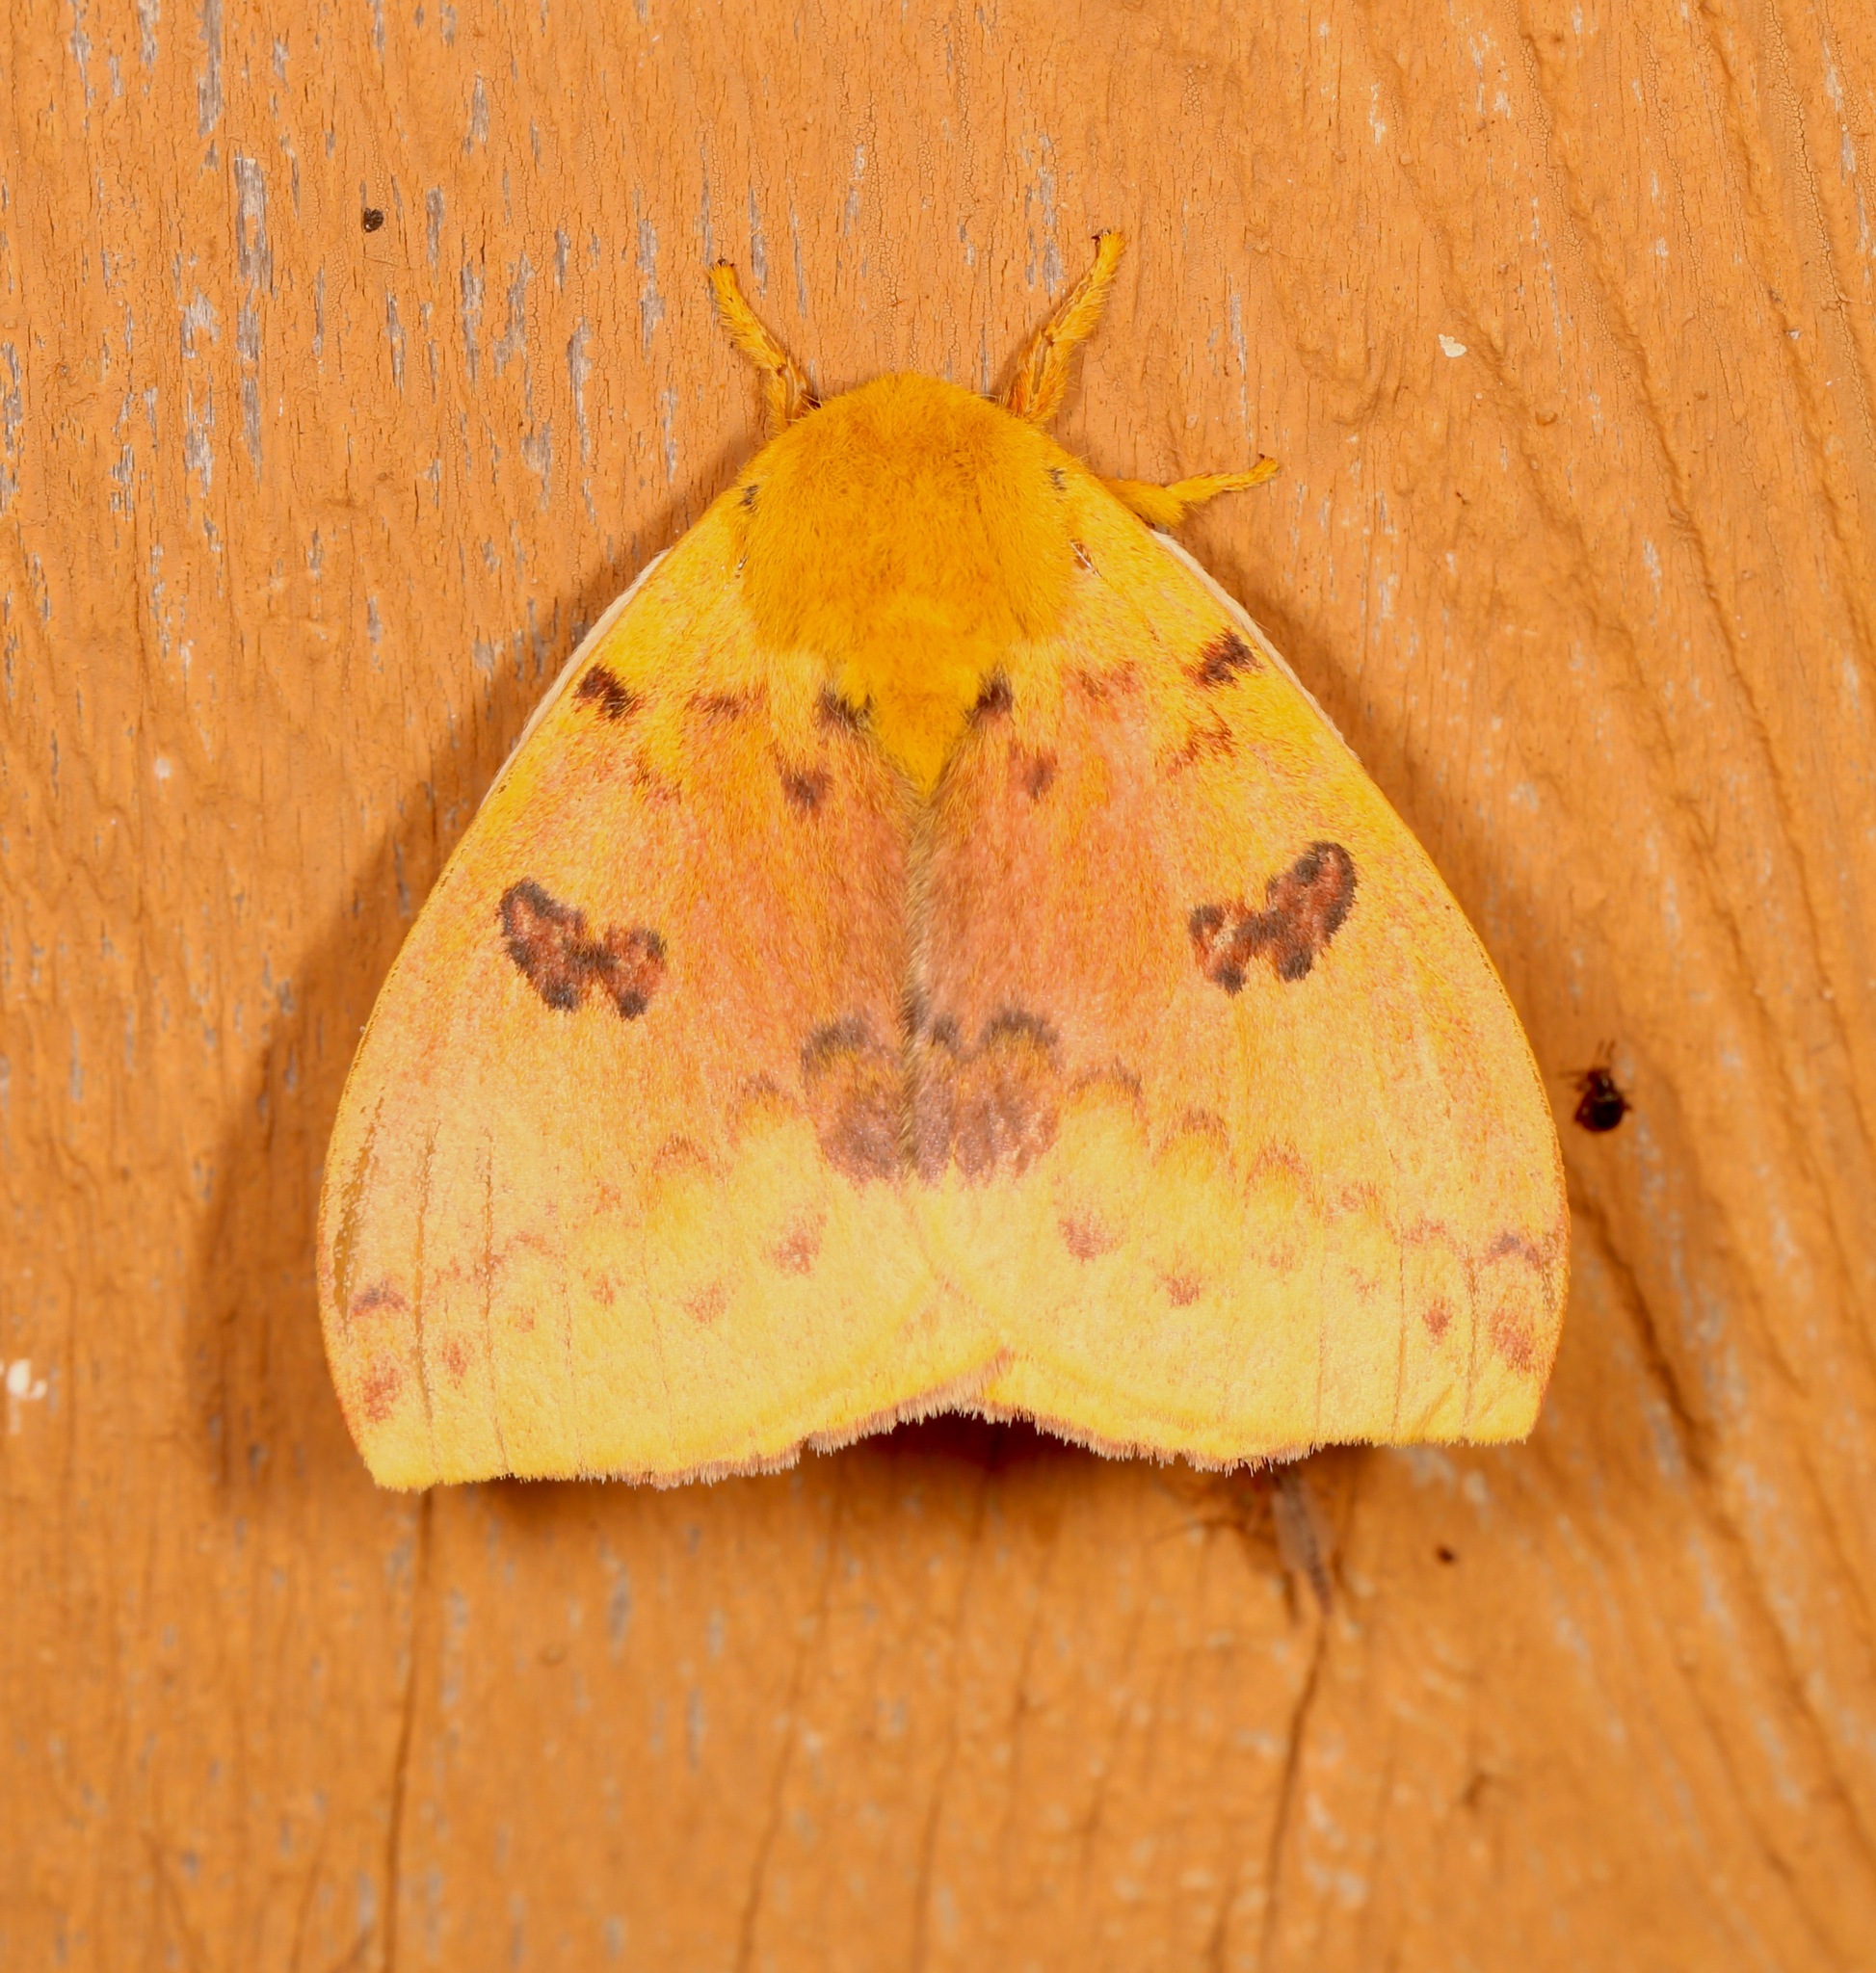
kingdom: Animalia
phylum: Arthropoda
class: Insecta
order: Lepidoptera
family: Saturniidae
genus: Automeris
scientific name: Automeris io
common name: Io moth
